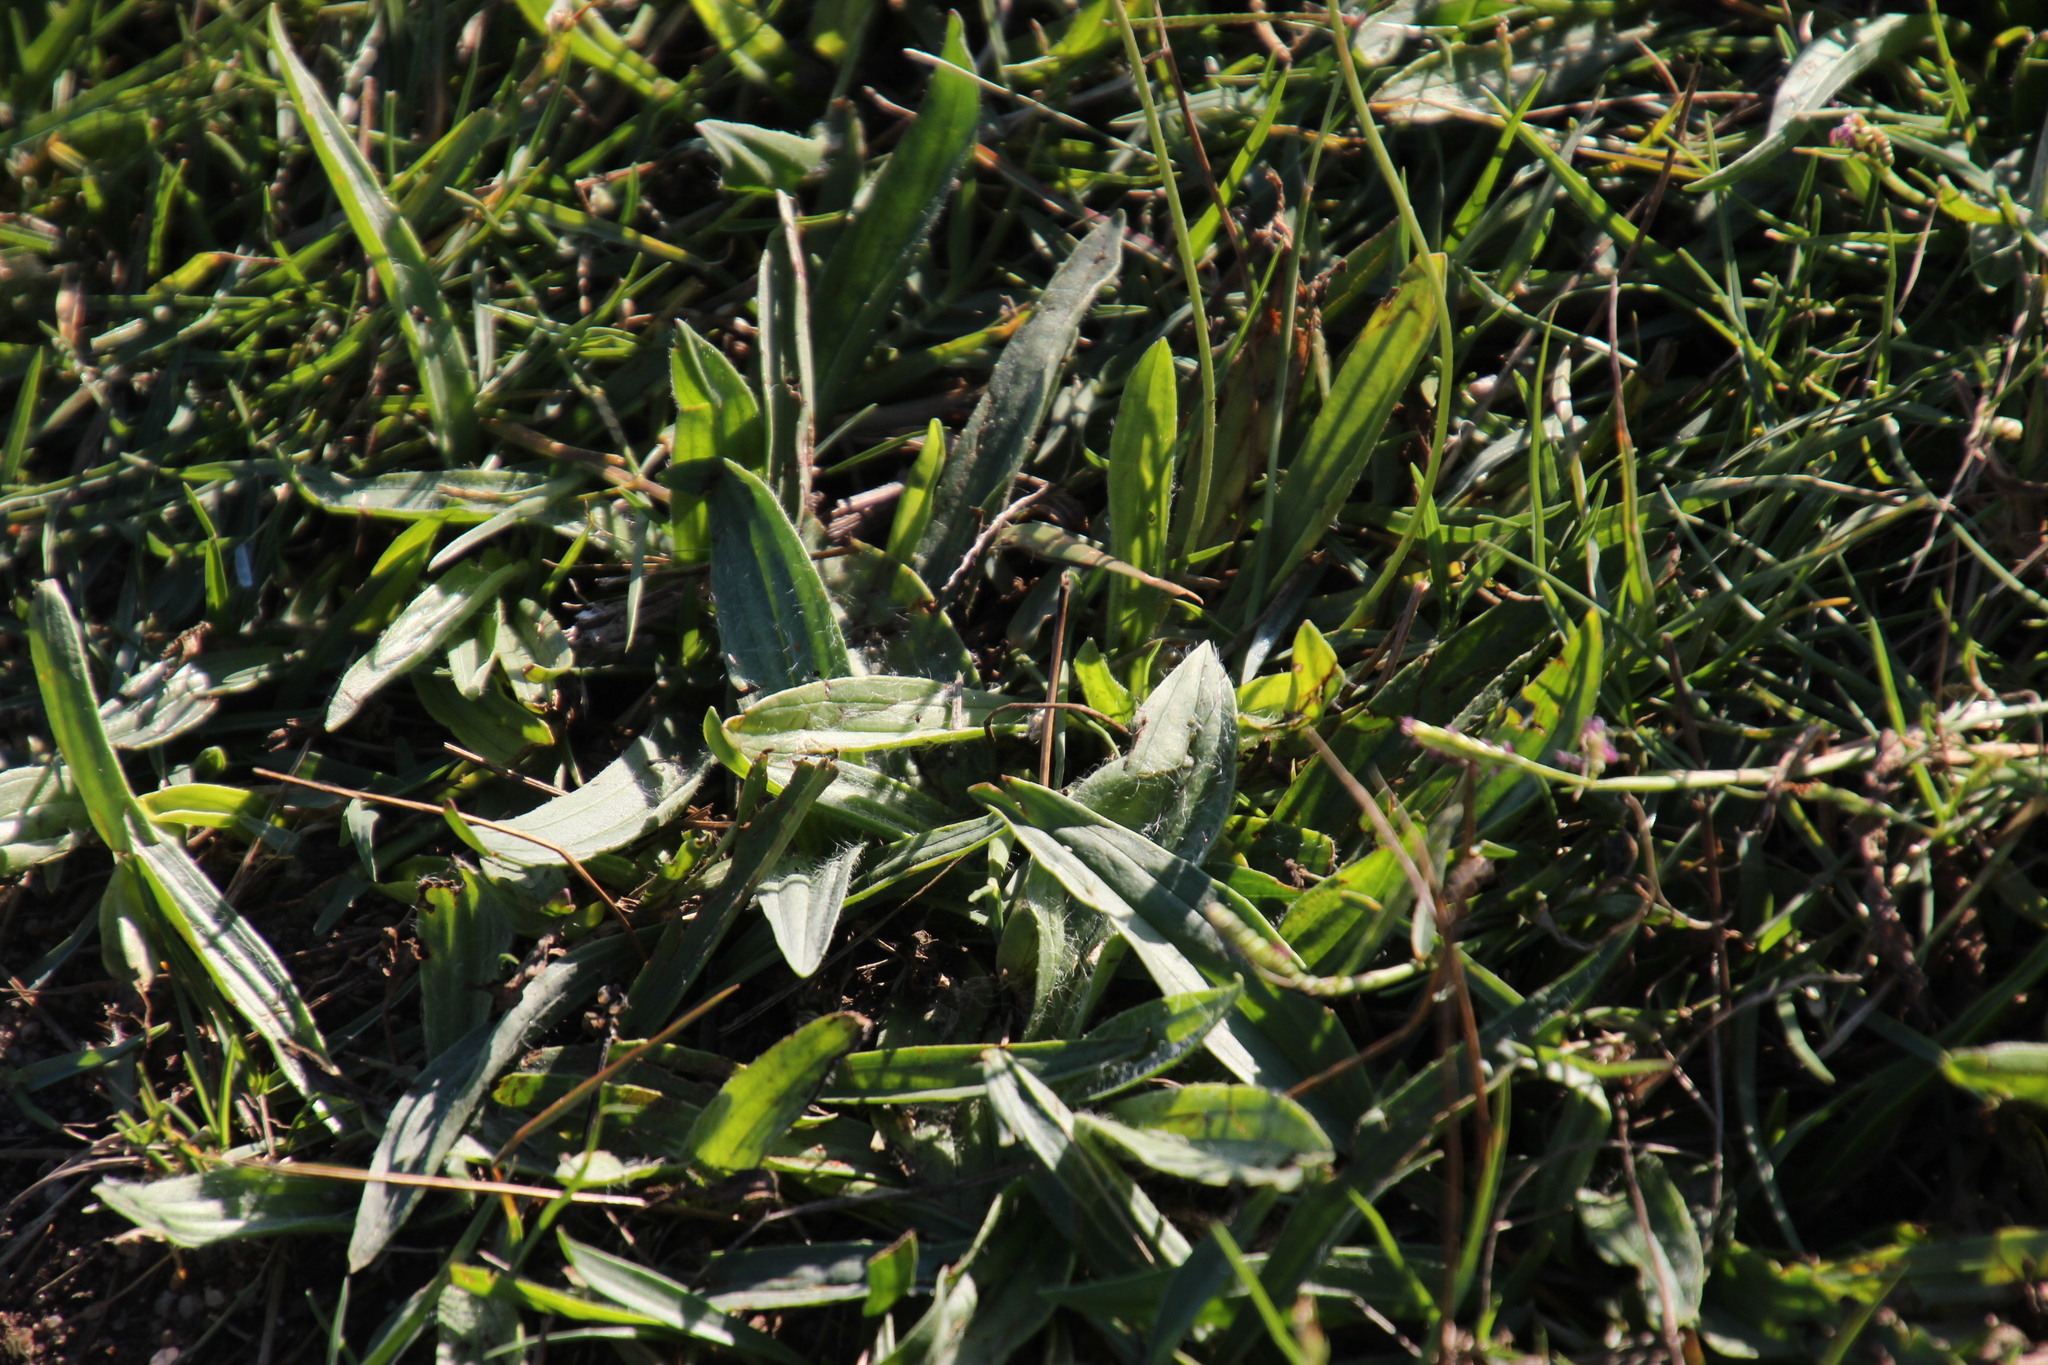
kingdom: Plantae
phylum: Tracheophyta
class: Magnoliopsida
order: Lamiales
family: Plantaginaceae
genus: Plantago
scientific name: Plantago lanceolata
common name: Ribwort plantain
